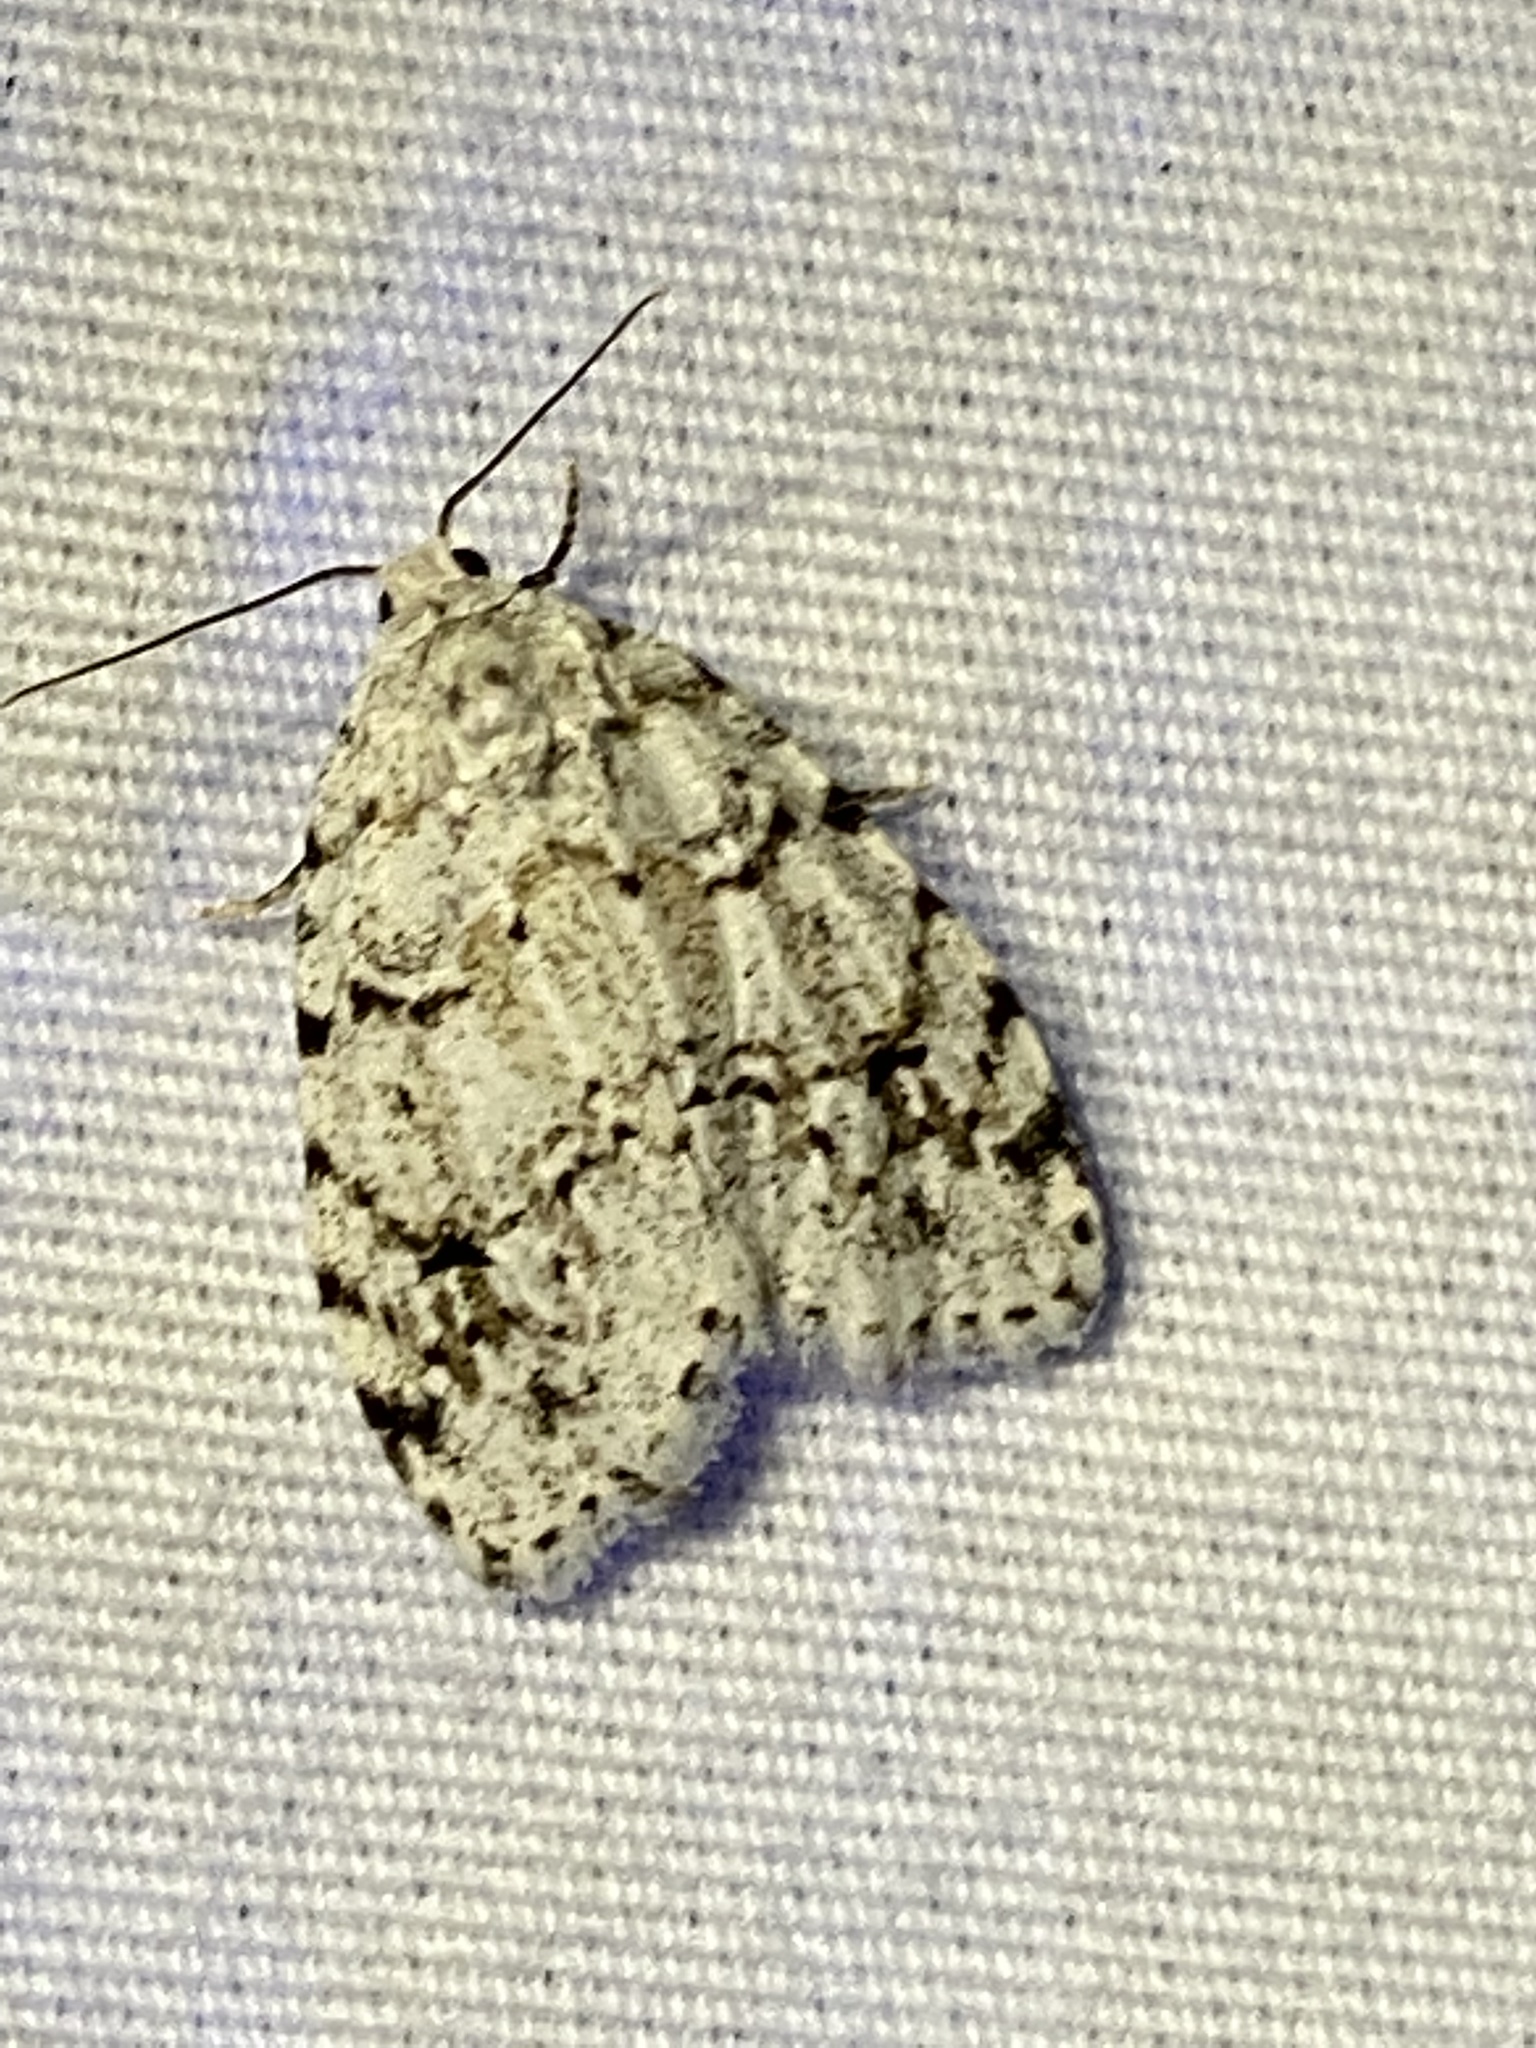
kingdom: Animalia
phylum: Arthropoda
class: Insecta
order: Lepidoptera
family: Erebidae
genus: Clemensia
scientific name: Clemensia albata
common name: Little white lichen moth
